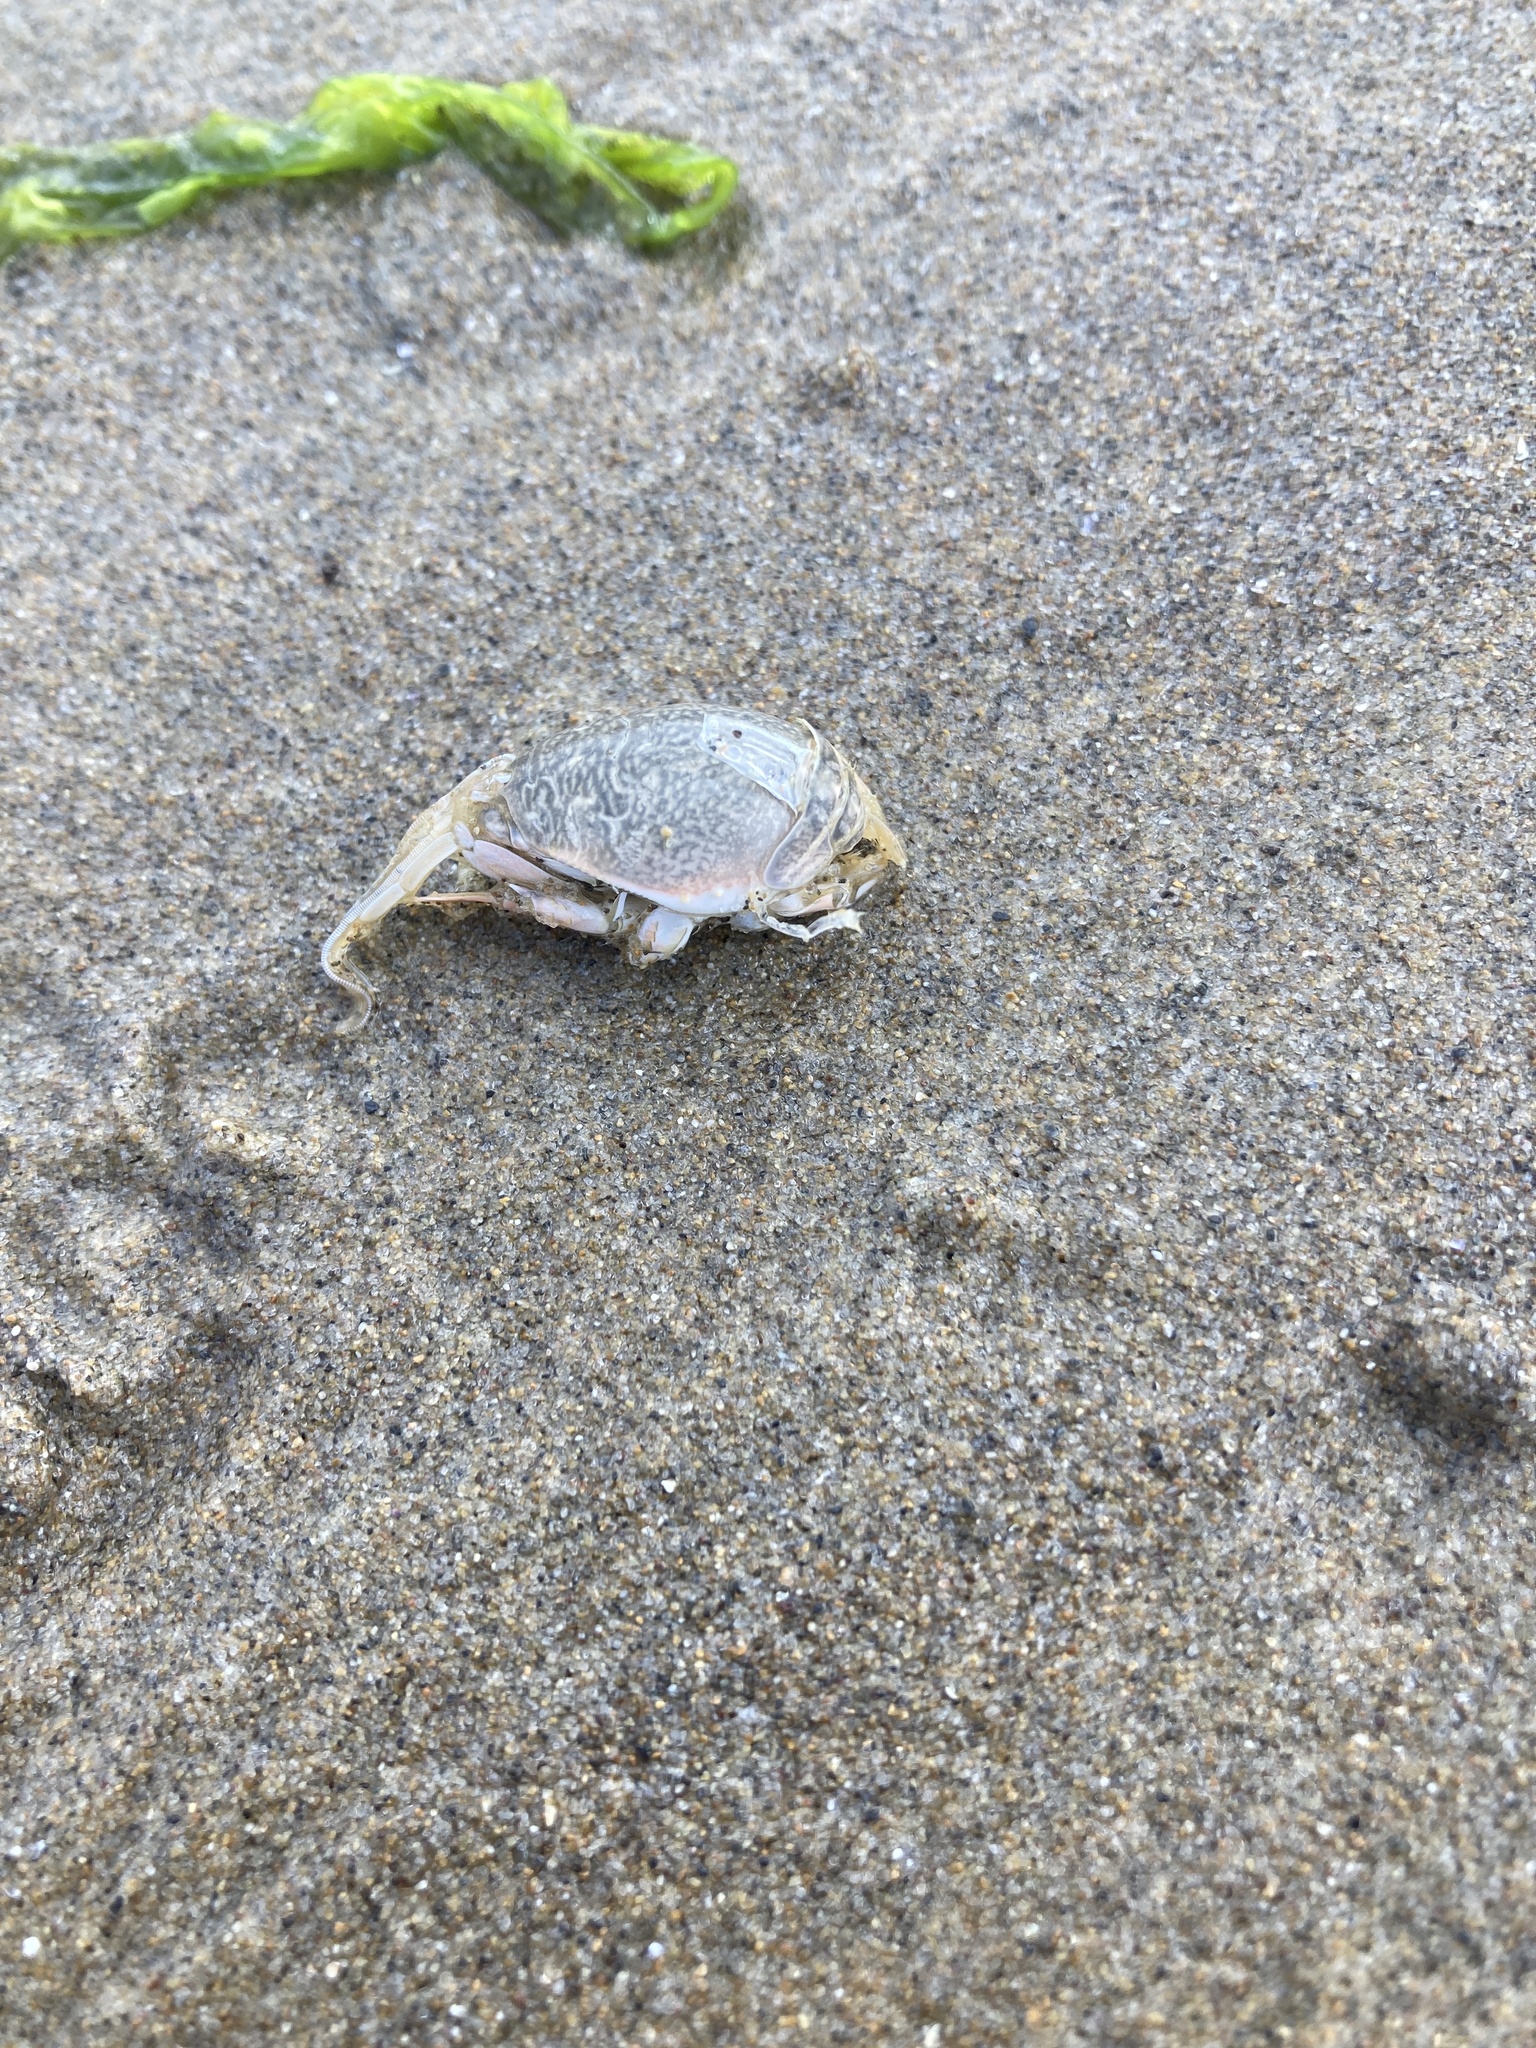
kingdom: Animalia
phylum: Arthropoda
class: Malacostraca
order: Decapoda
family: Hippidae
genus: Emerita
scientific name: Emerita analoga
